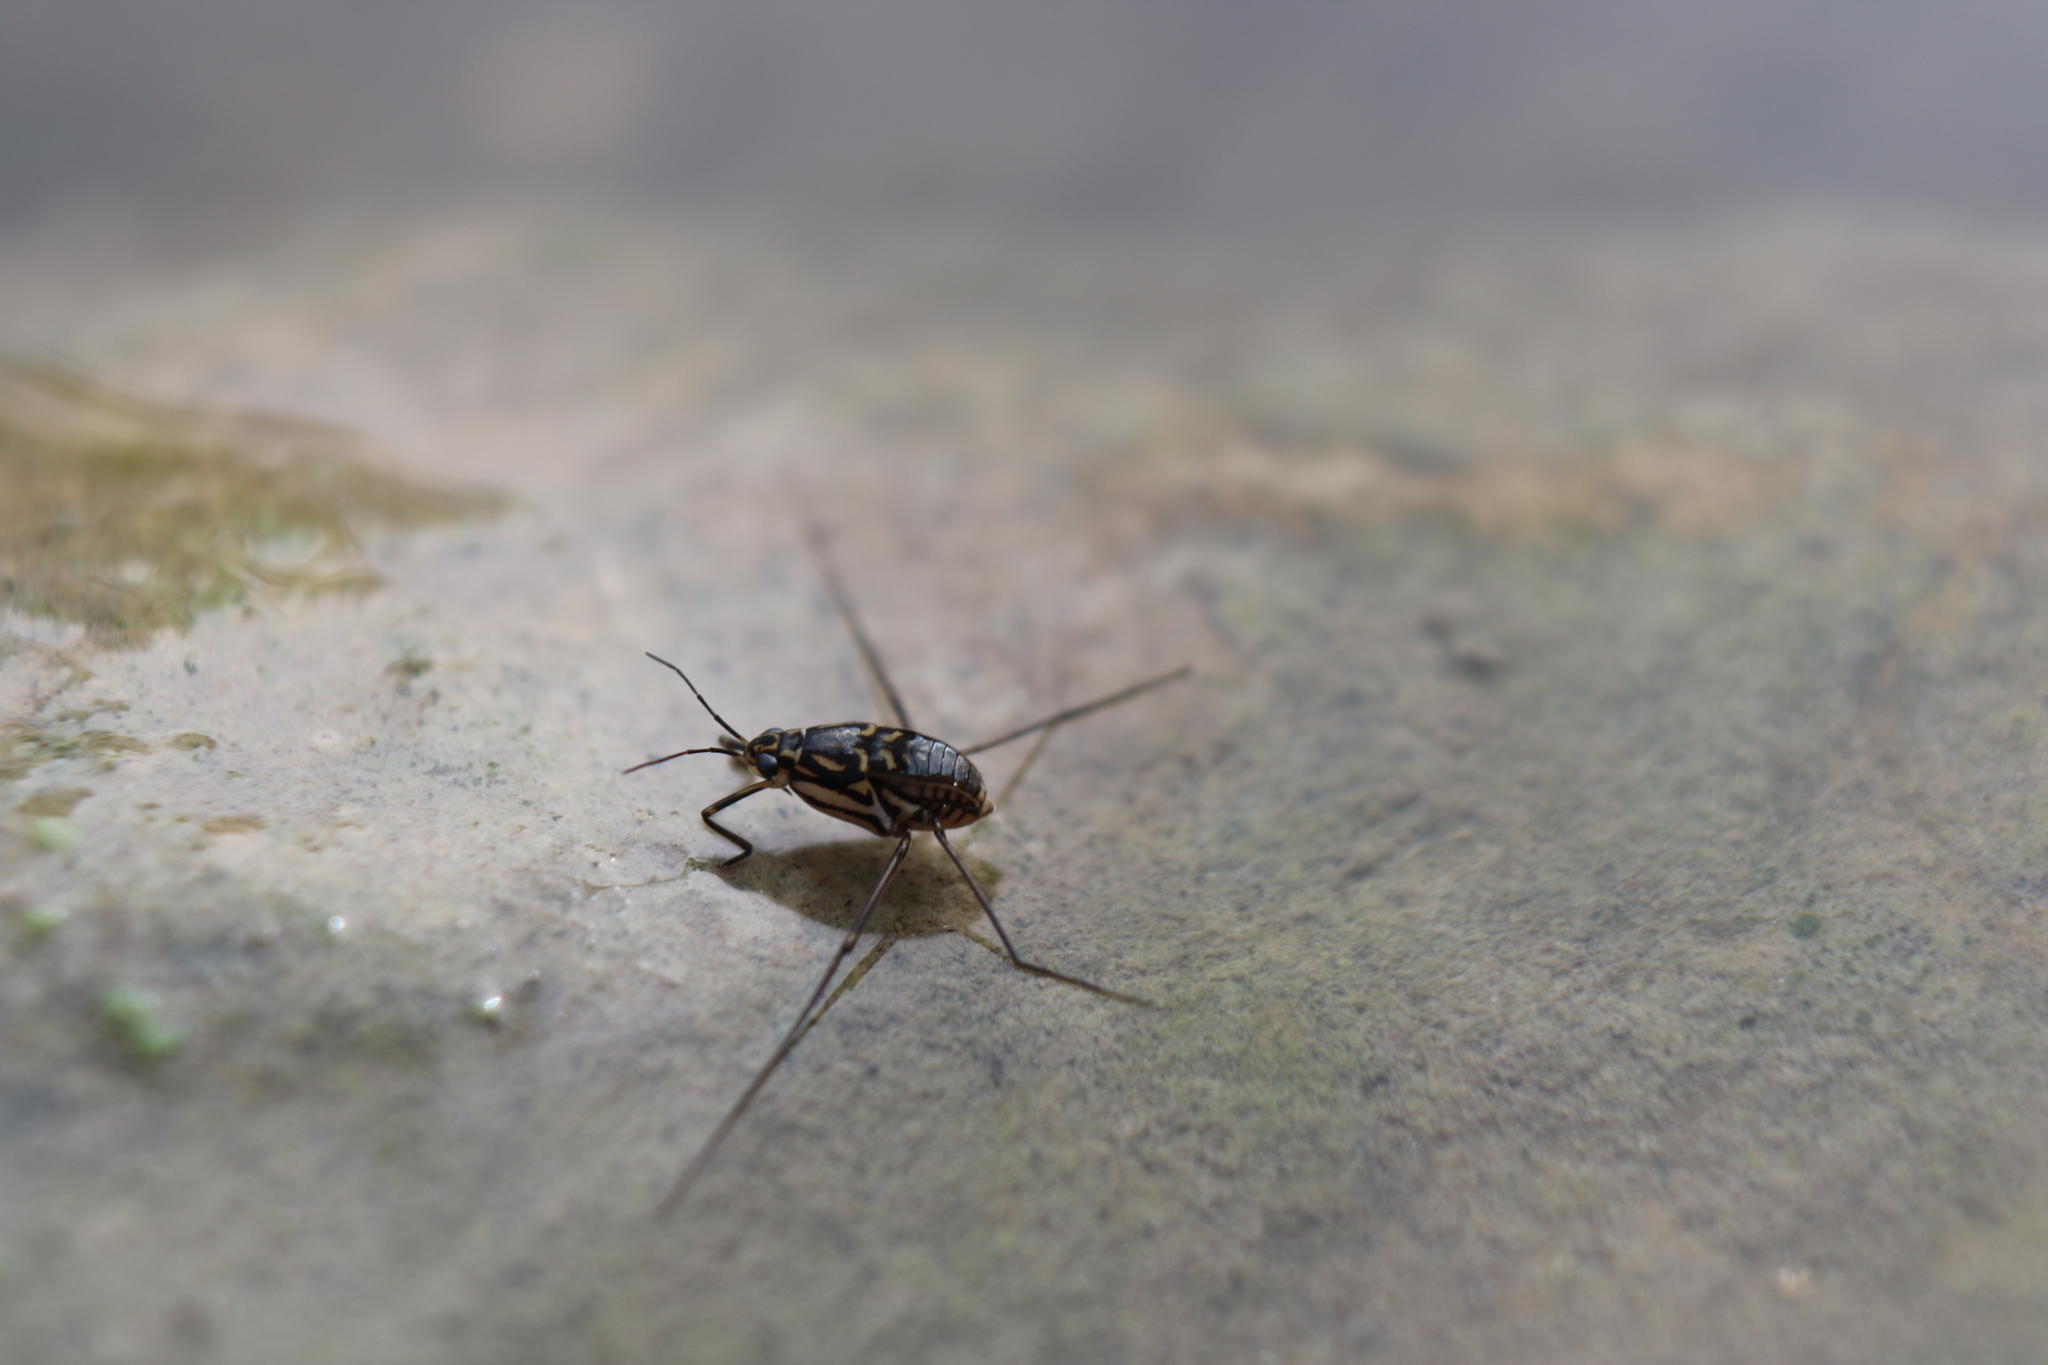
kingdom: Animalia
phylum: Arthropoda
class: Insecta
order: Hemiptera
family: Gerridae
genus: Trepobates
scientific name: Trepobates inermis
